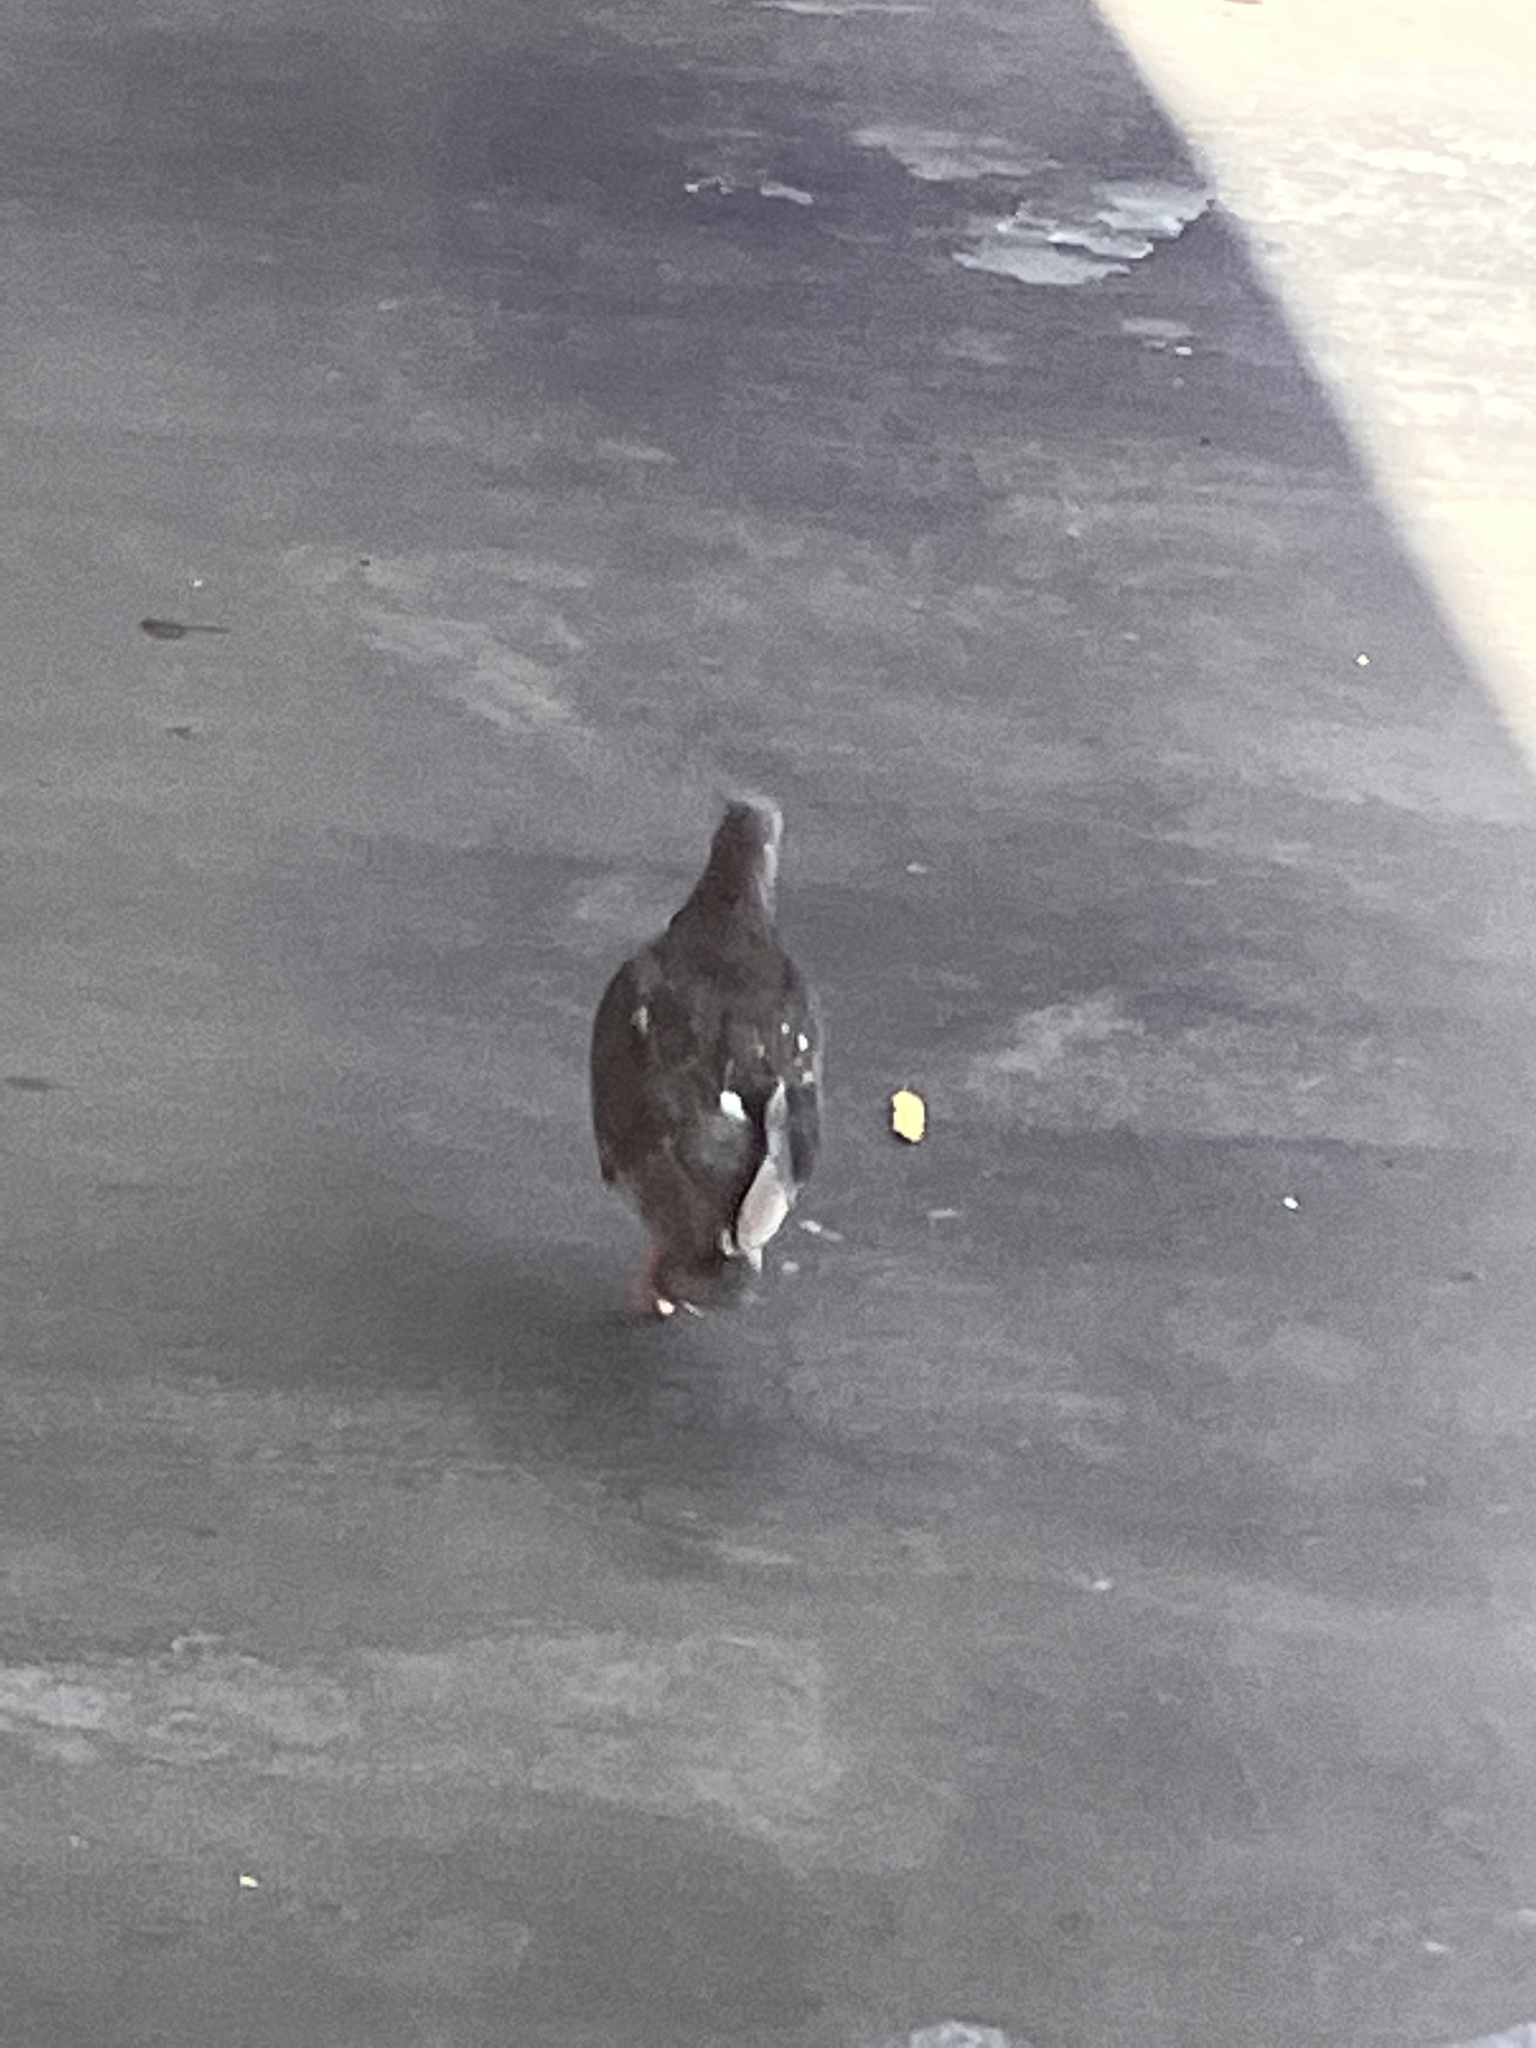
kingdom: Animalia
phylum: Chordata
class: Aves
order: Columbiformes
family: Columbidae
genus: Columba
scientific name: Columba livia
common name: Rock pigeon
